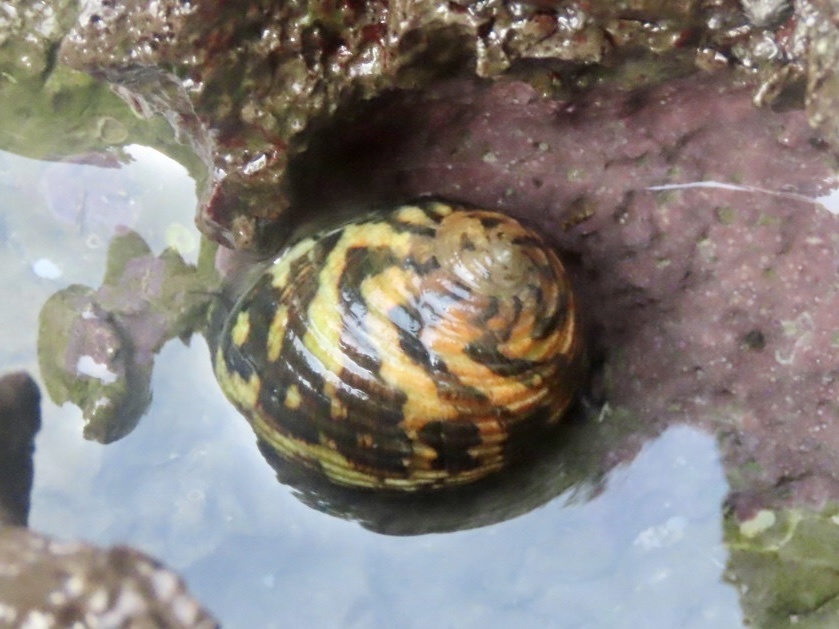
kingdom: Animalia
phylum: Mollusca
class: Gastropoda
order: Cycloneritida
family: Neritidae
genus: Nerita
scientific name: Nerita chamaeleon
